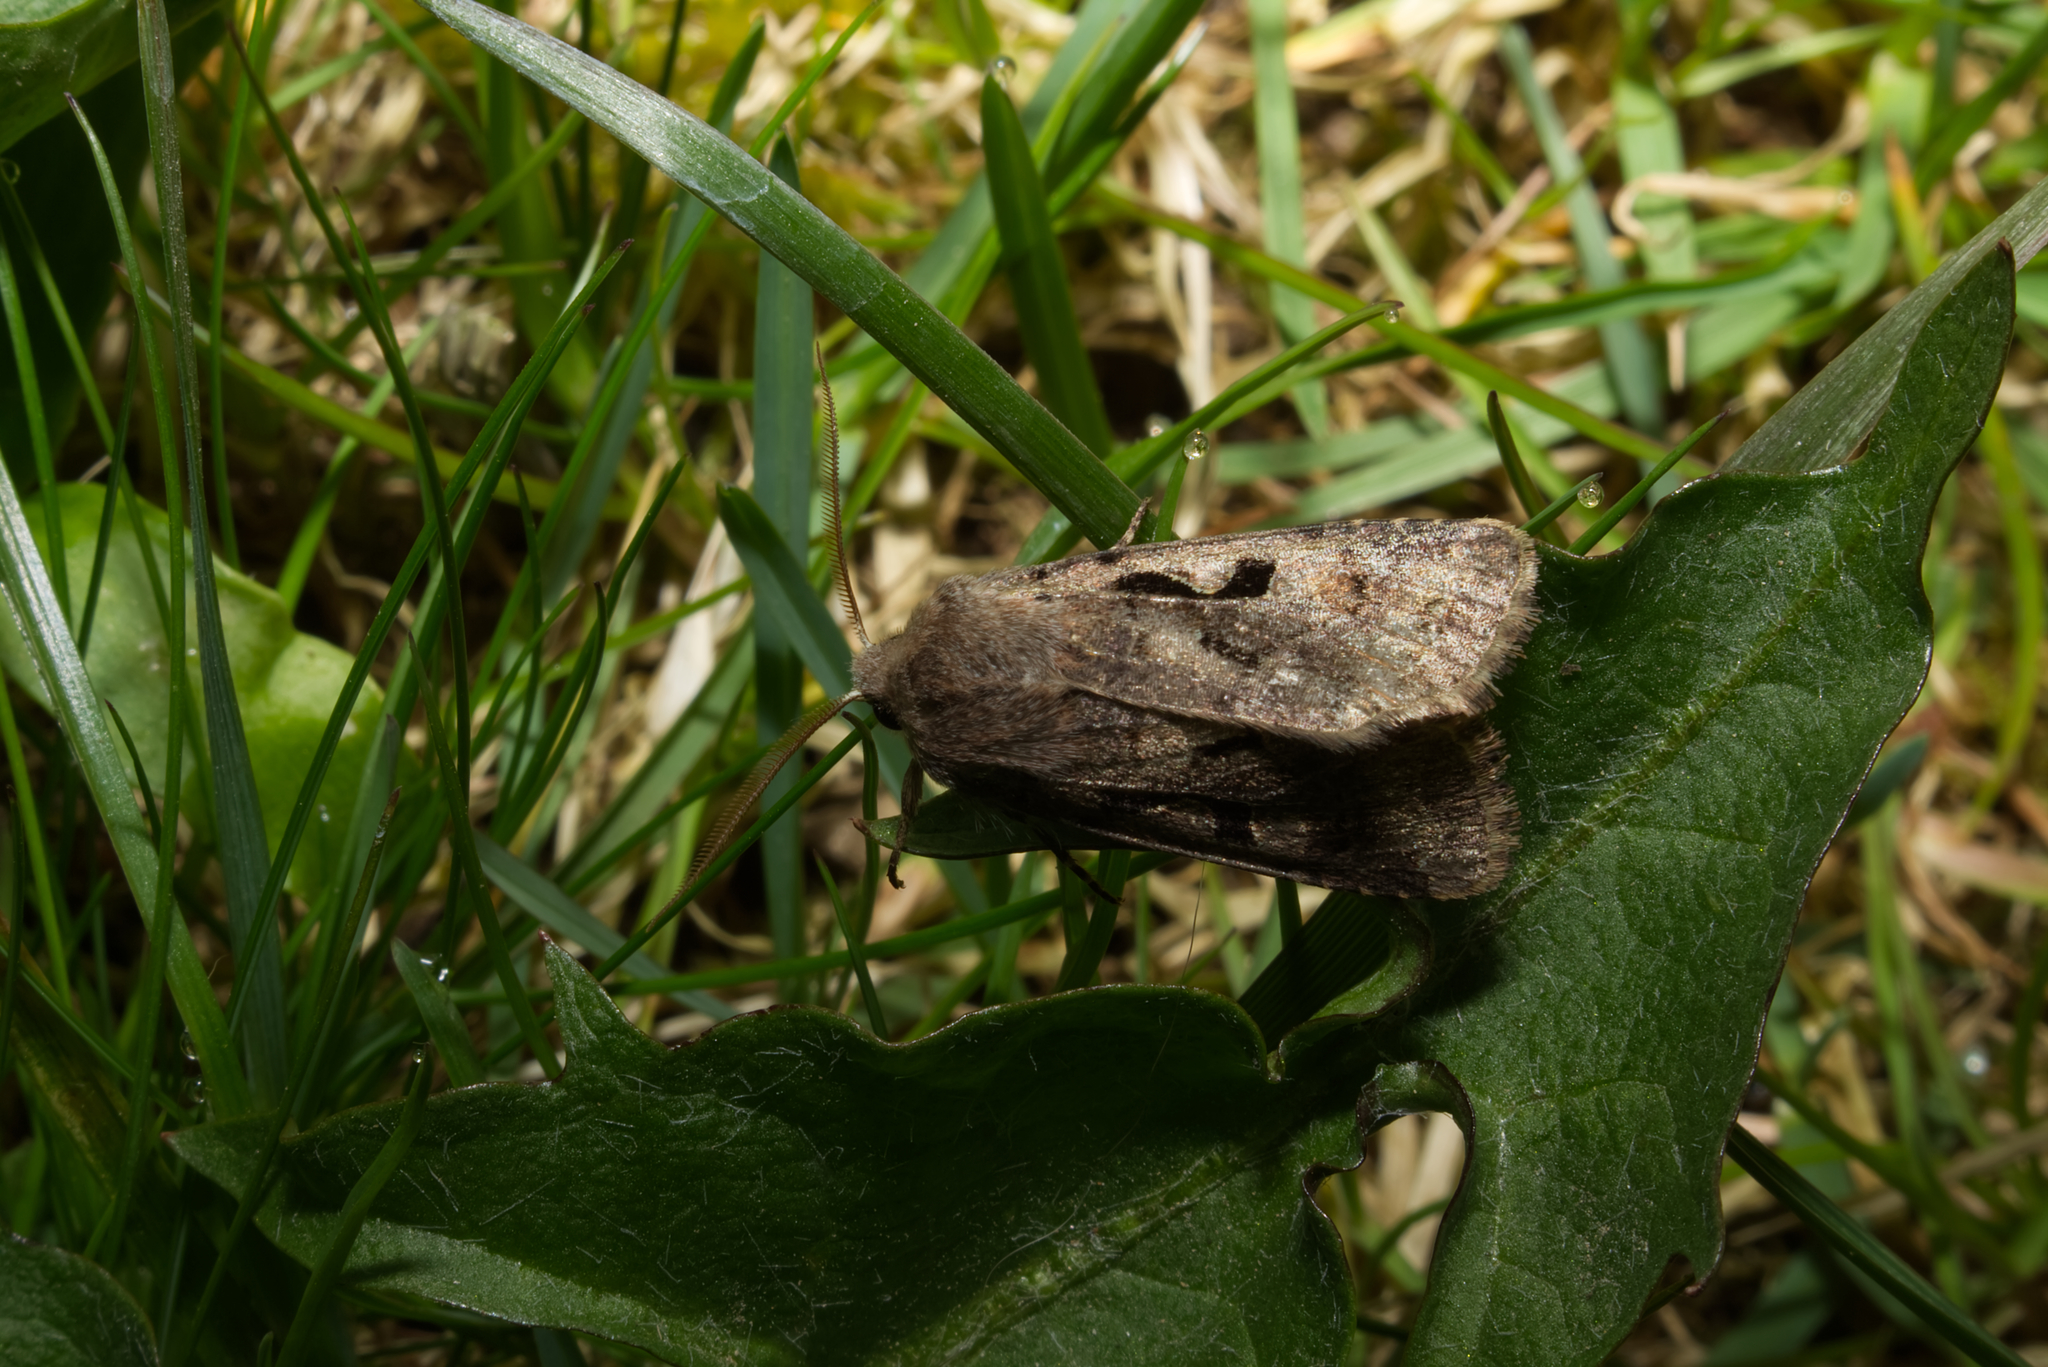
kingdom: Animalia
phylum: Arthropoda
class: Insecta
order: Lepidoptera
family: Noctuidae
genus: Orthosia
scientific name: Orthosia gothica
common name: Hebrew character
